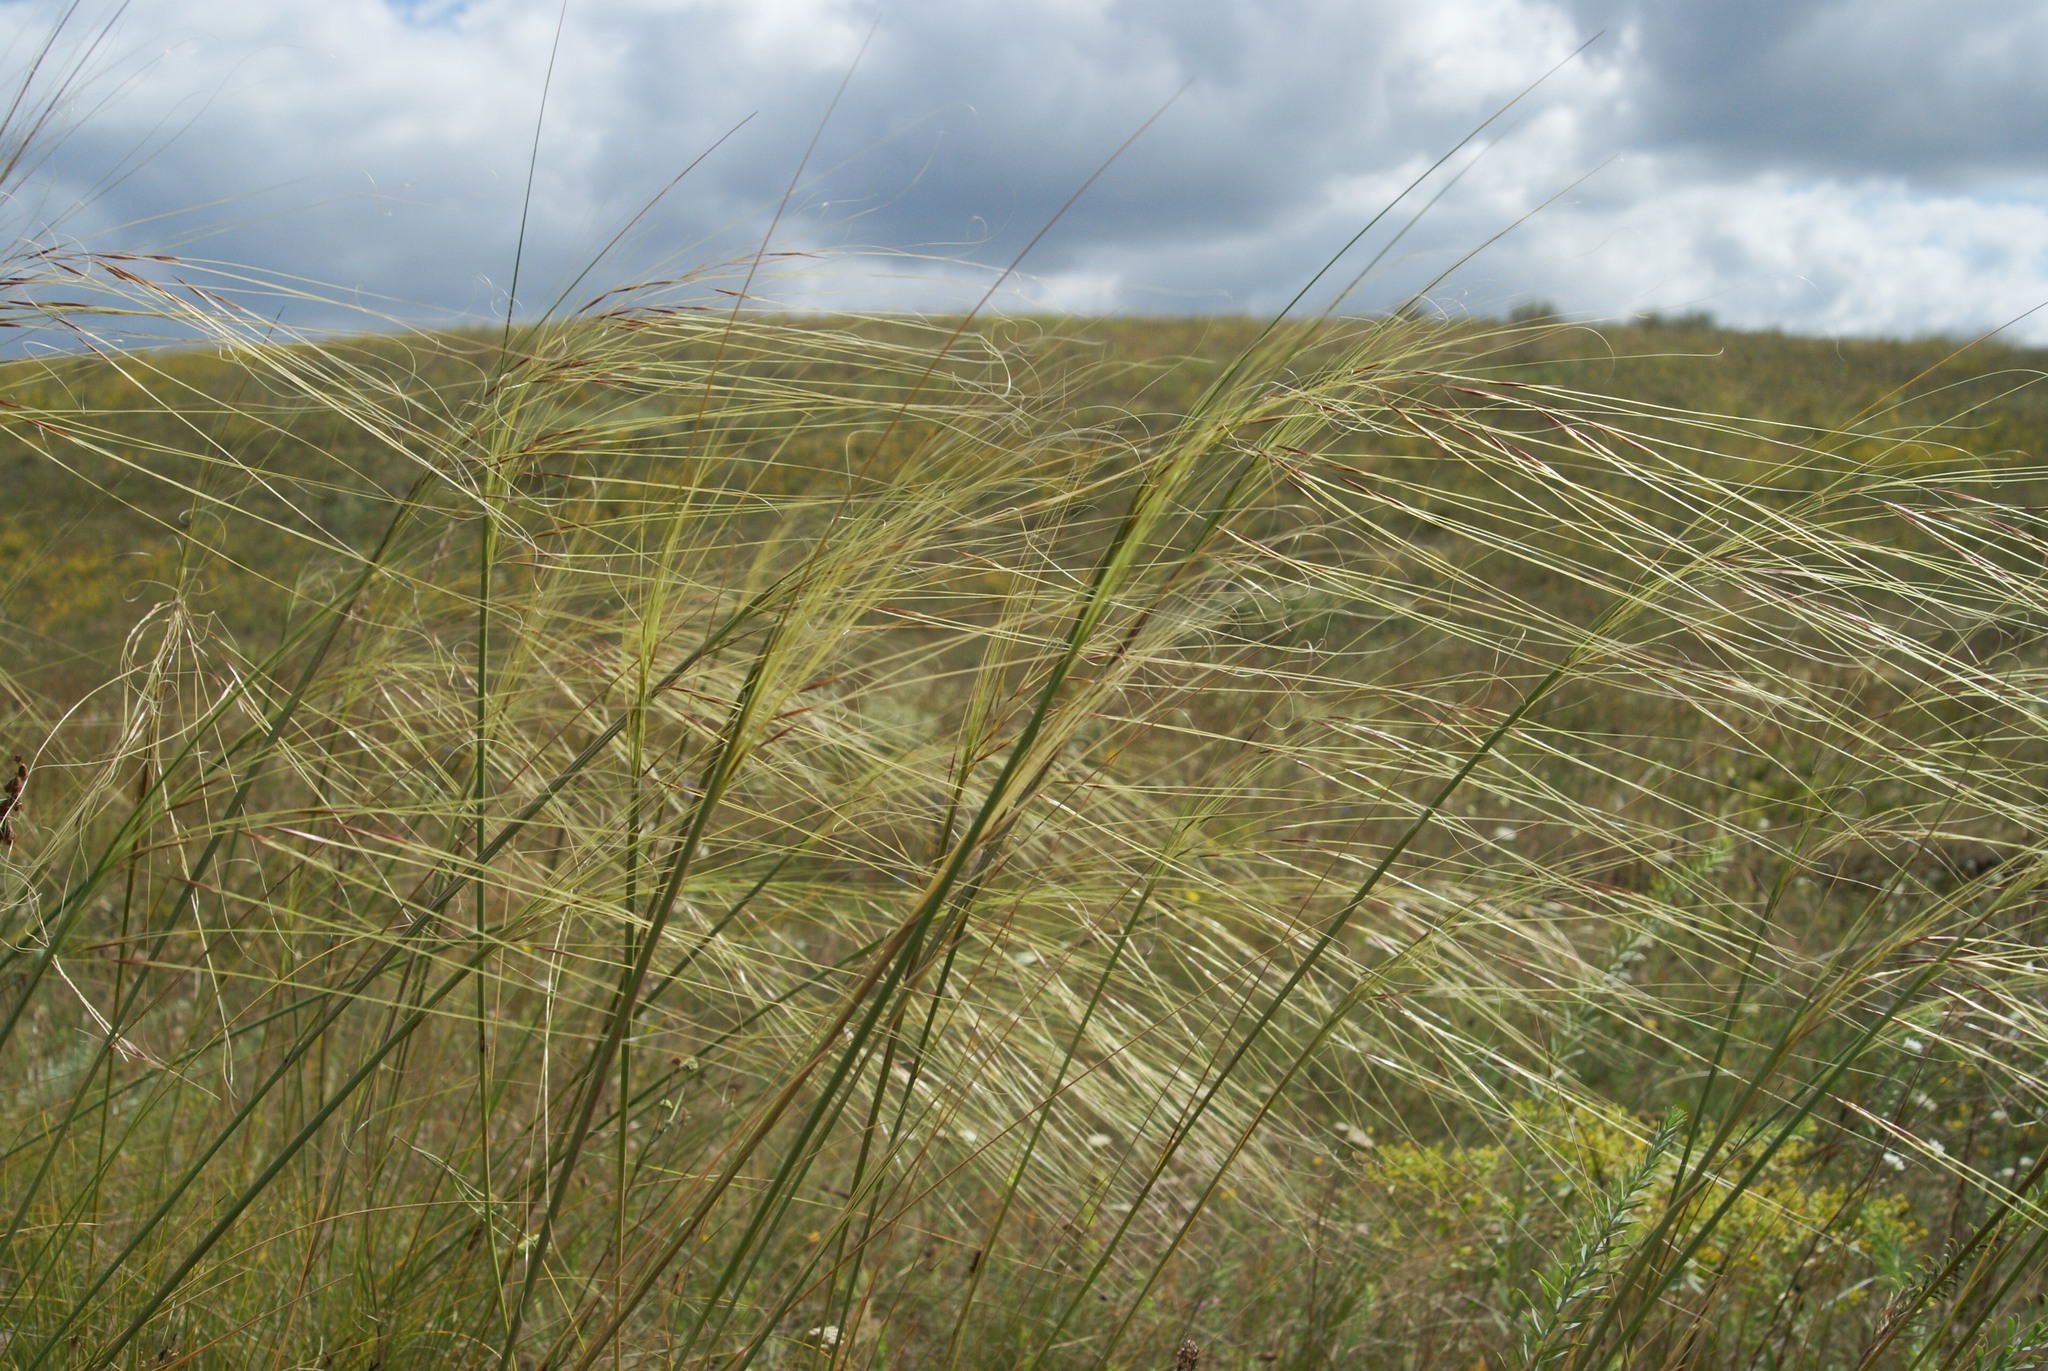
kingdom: Plantae
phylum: Tracheophyta
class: Liliopsida
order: Poales
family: Poaceae
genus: Stipa
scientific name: Stipa capillata
